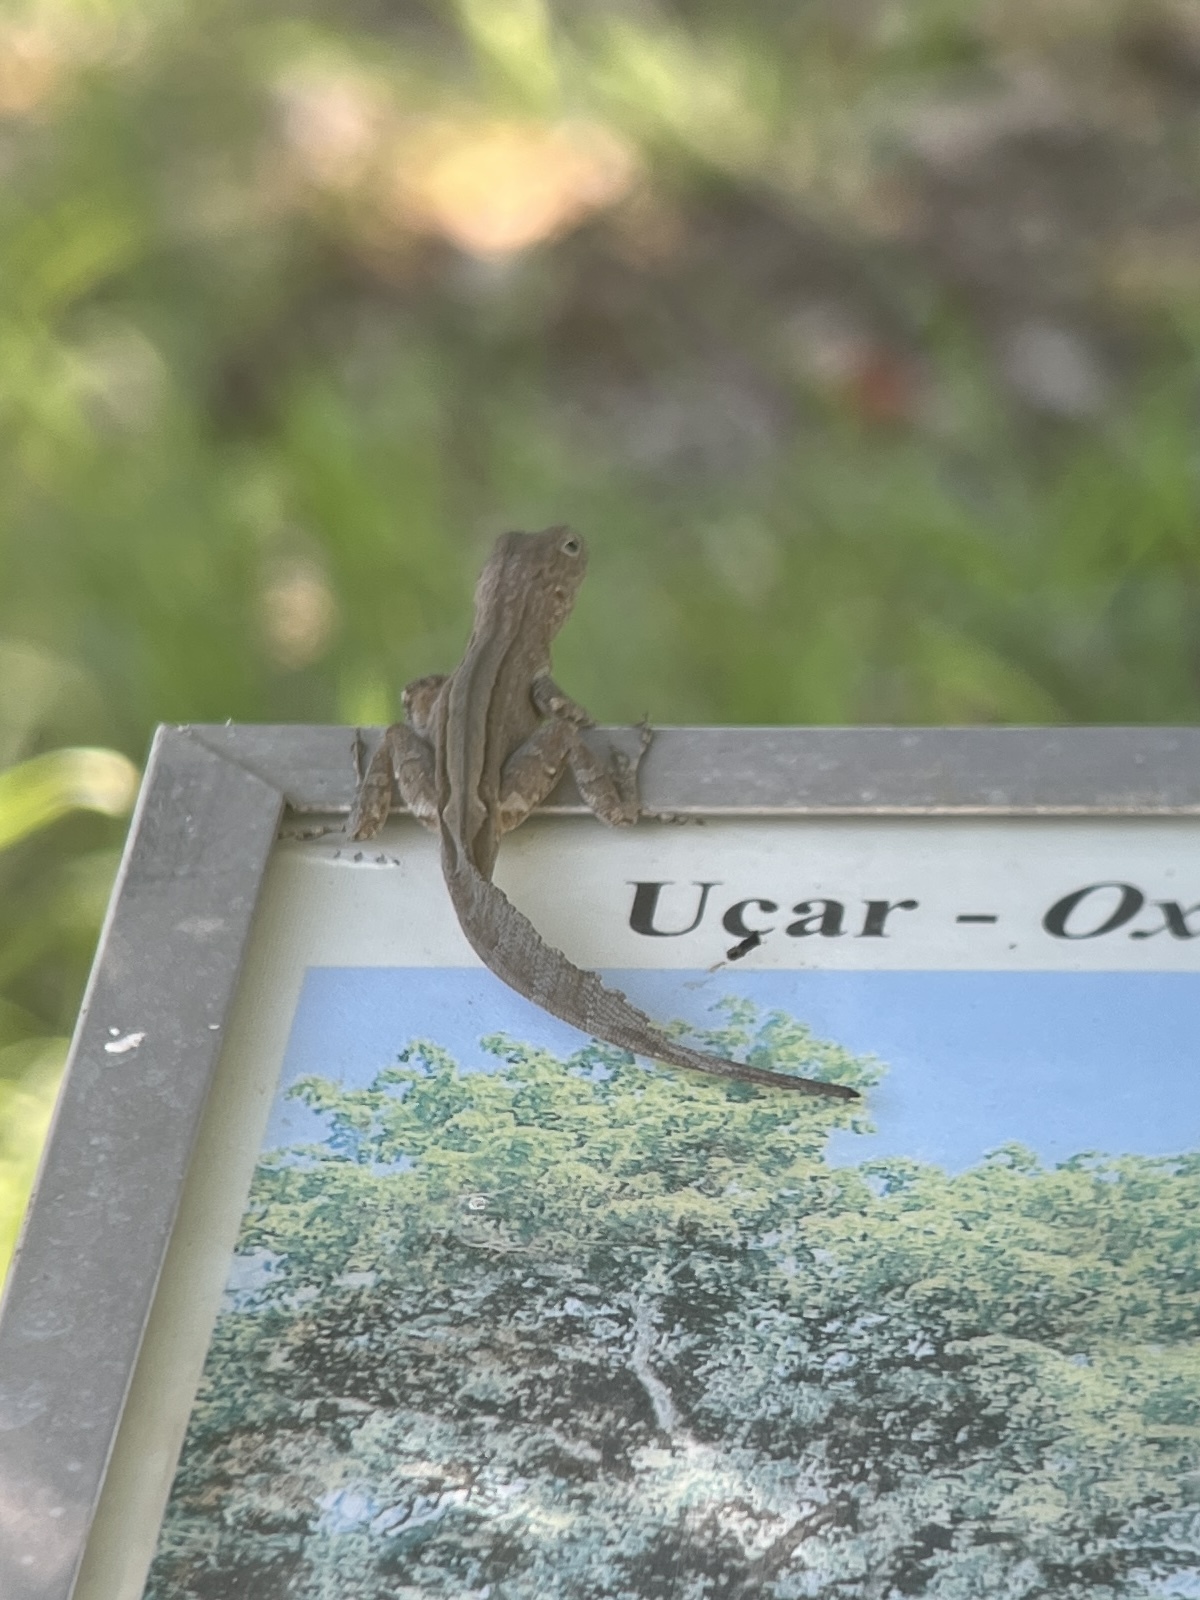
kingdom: Animalia
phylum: Chordata
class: Squamata
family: Dactyloidae
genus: Anolis
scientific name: Anolis cristatellus
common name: Crested anole
